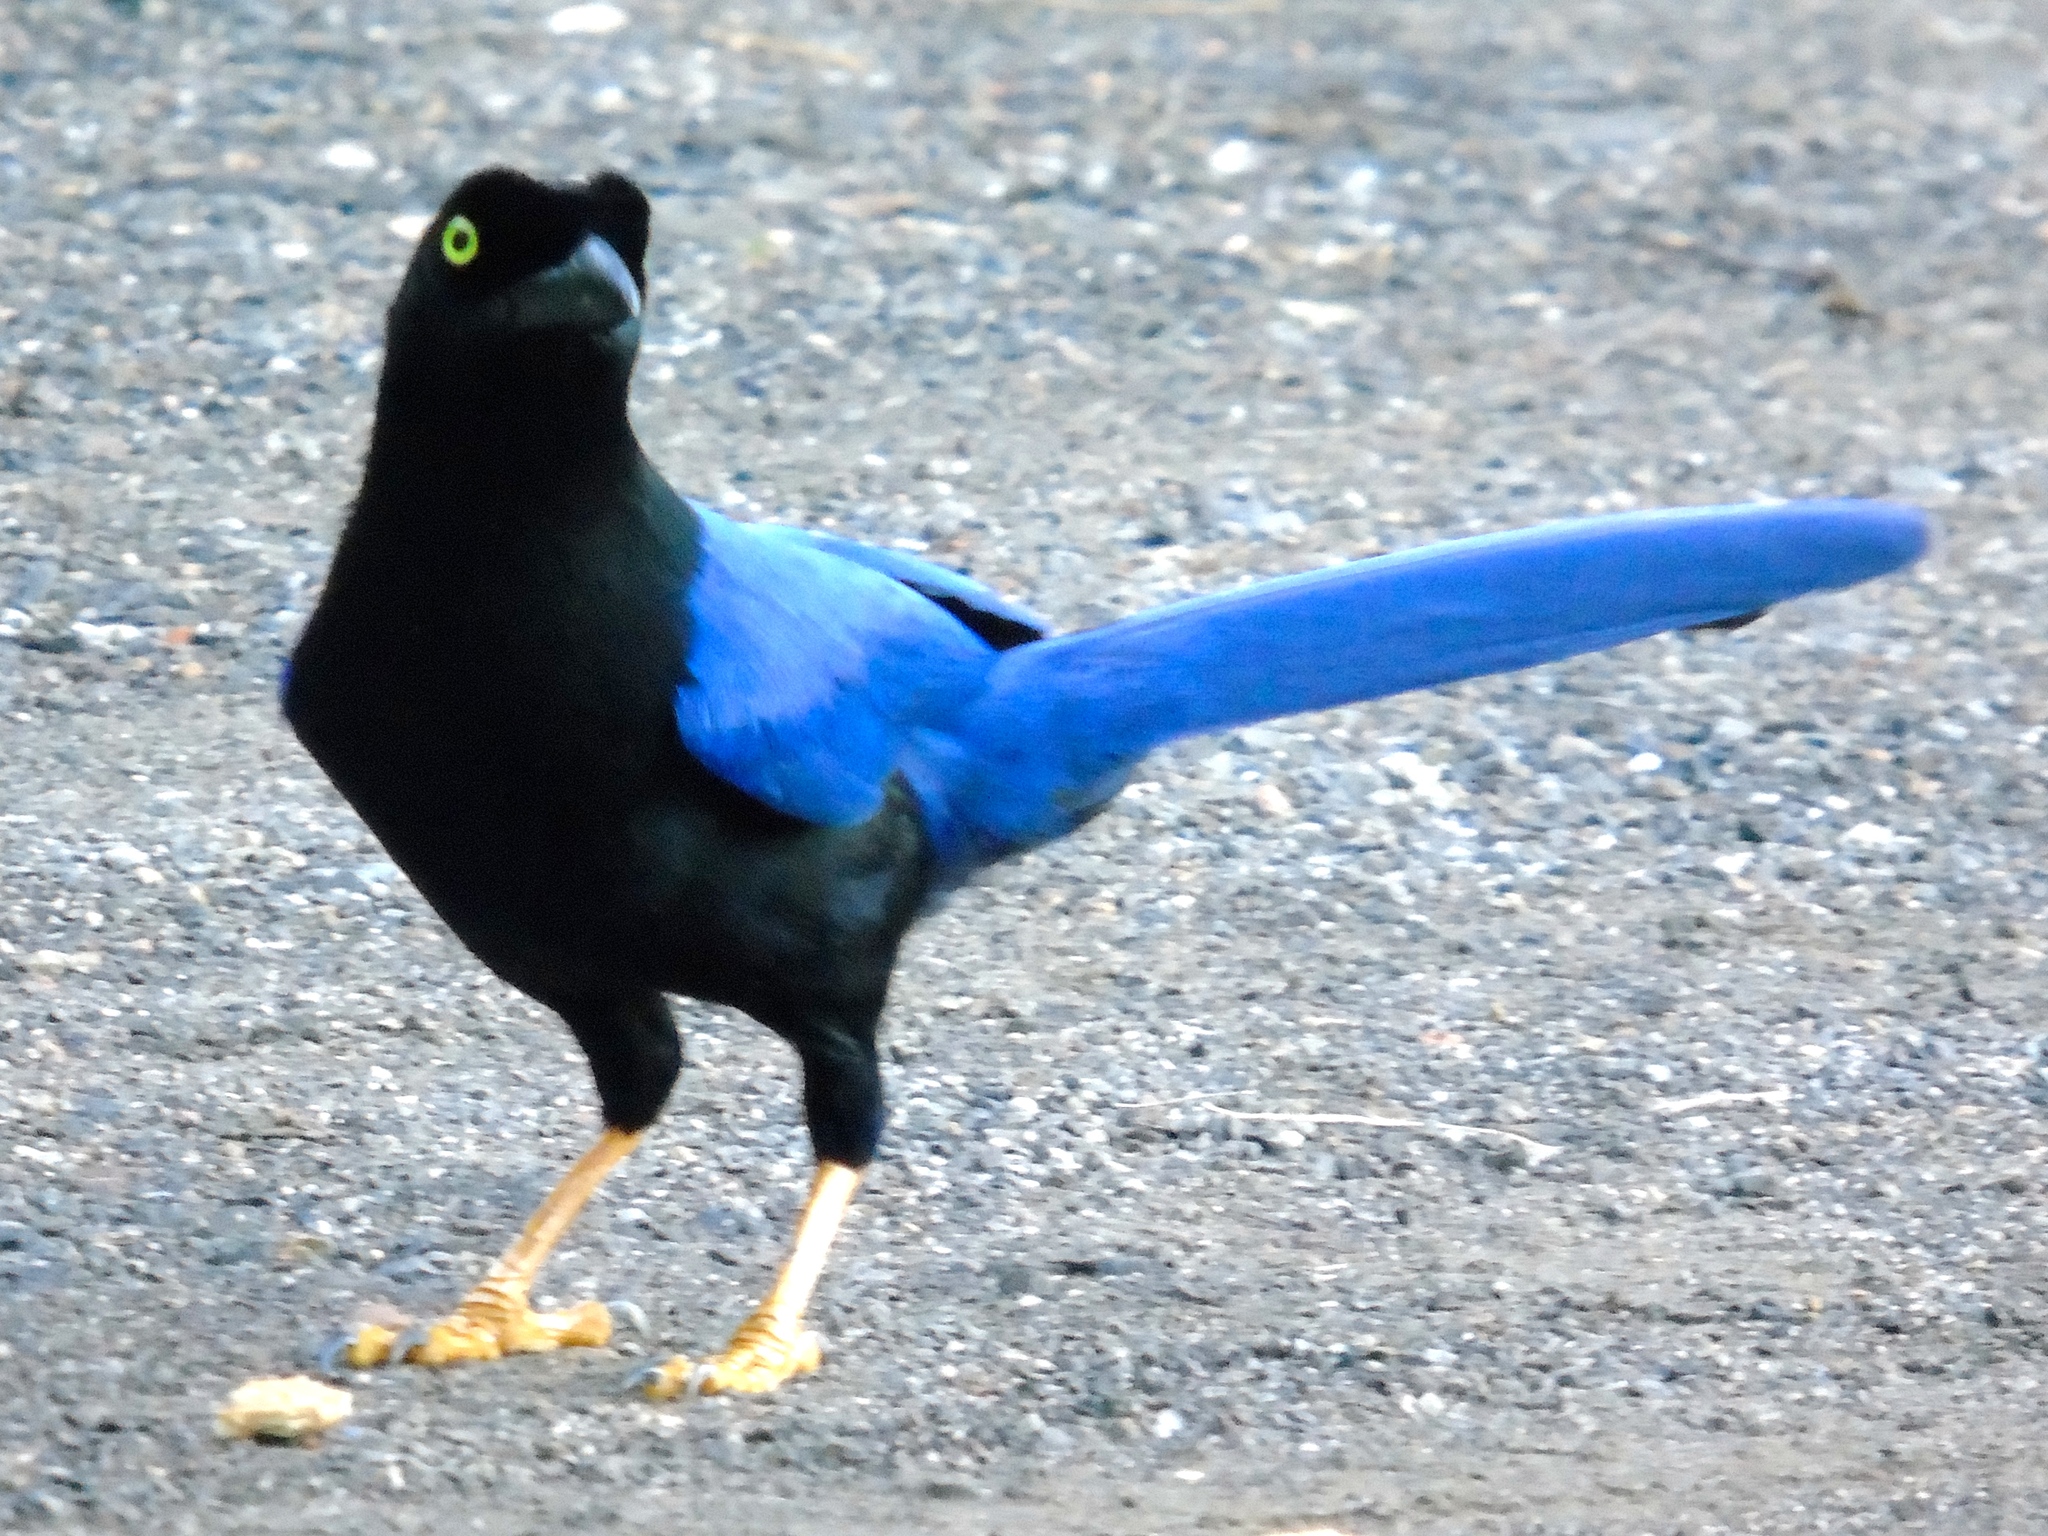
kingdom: Animalia
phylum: Chordata
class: Aves
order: Passeriformes
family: Corvidae
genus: Cyanocorax
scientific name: Cyanocorax beecheii
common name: Purplish-backed jay
